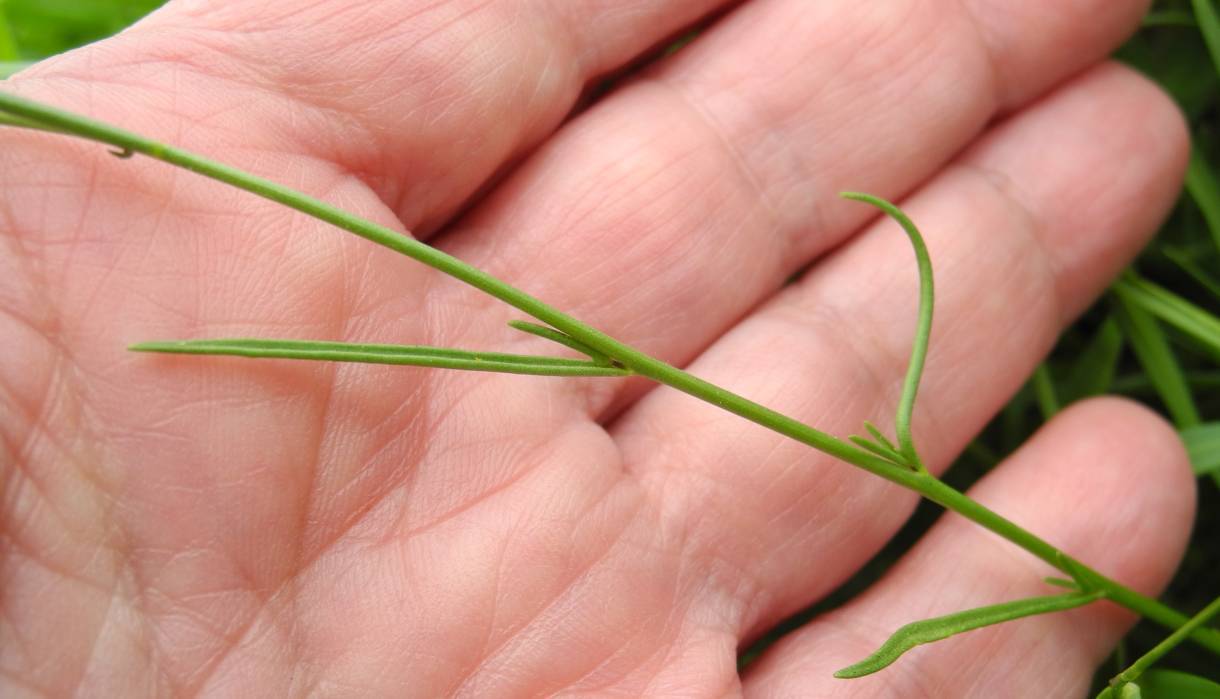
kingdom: Plantae
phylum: Tracheophyta
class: Magnoliopsida
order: Lamiales
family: Plantaginaceae
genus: Linaria
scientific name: Linaria pelisseriana
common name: Jersey toadflax
